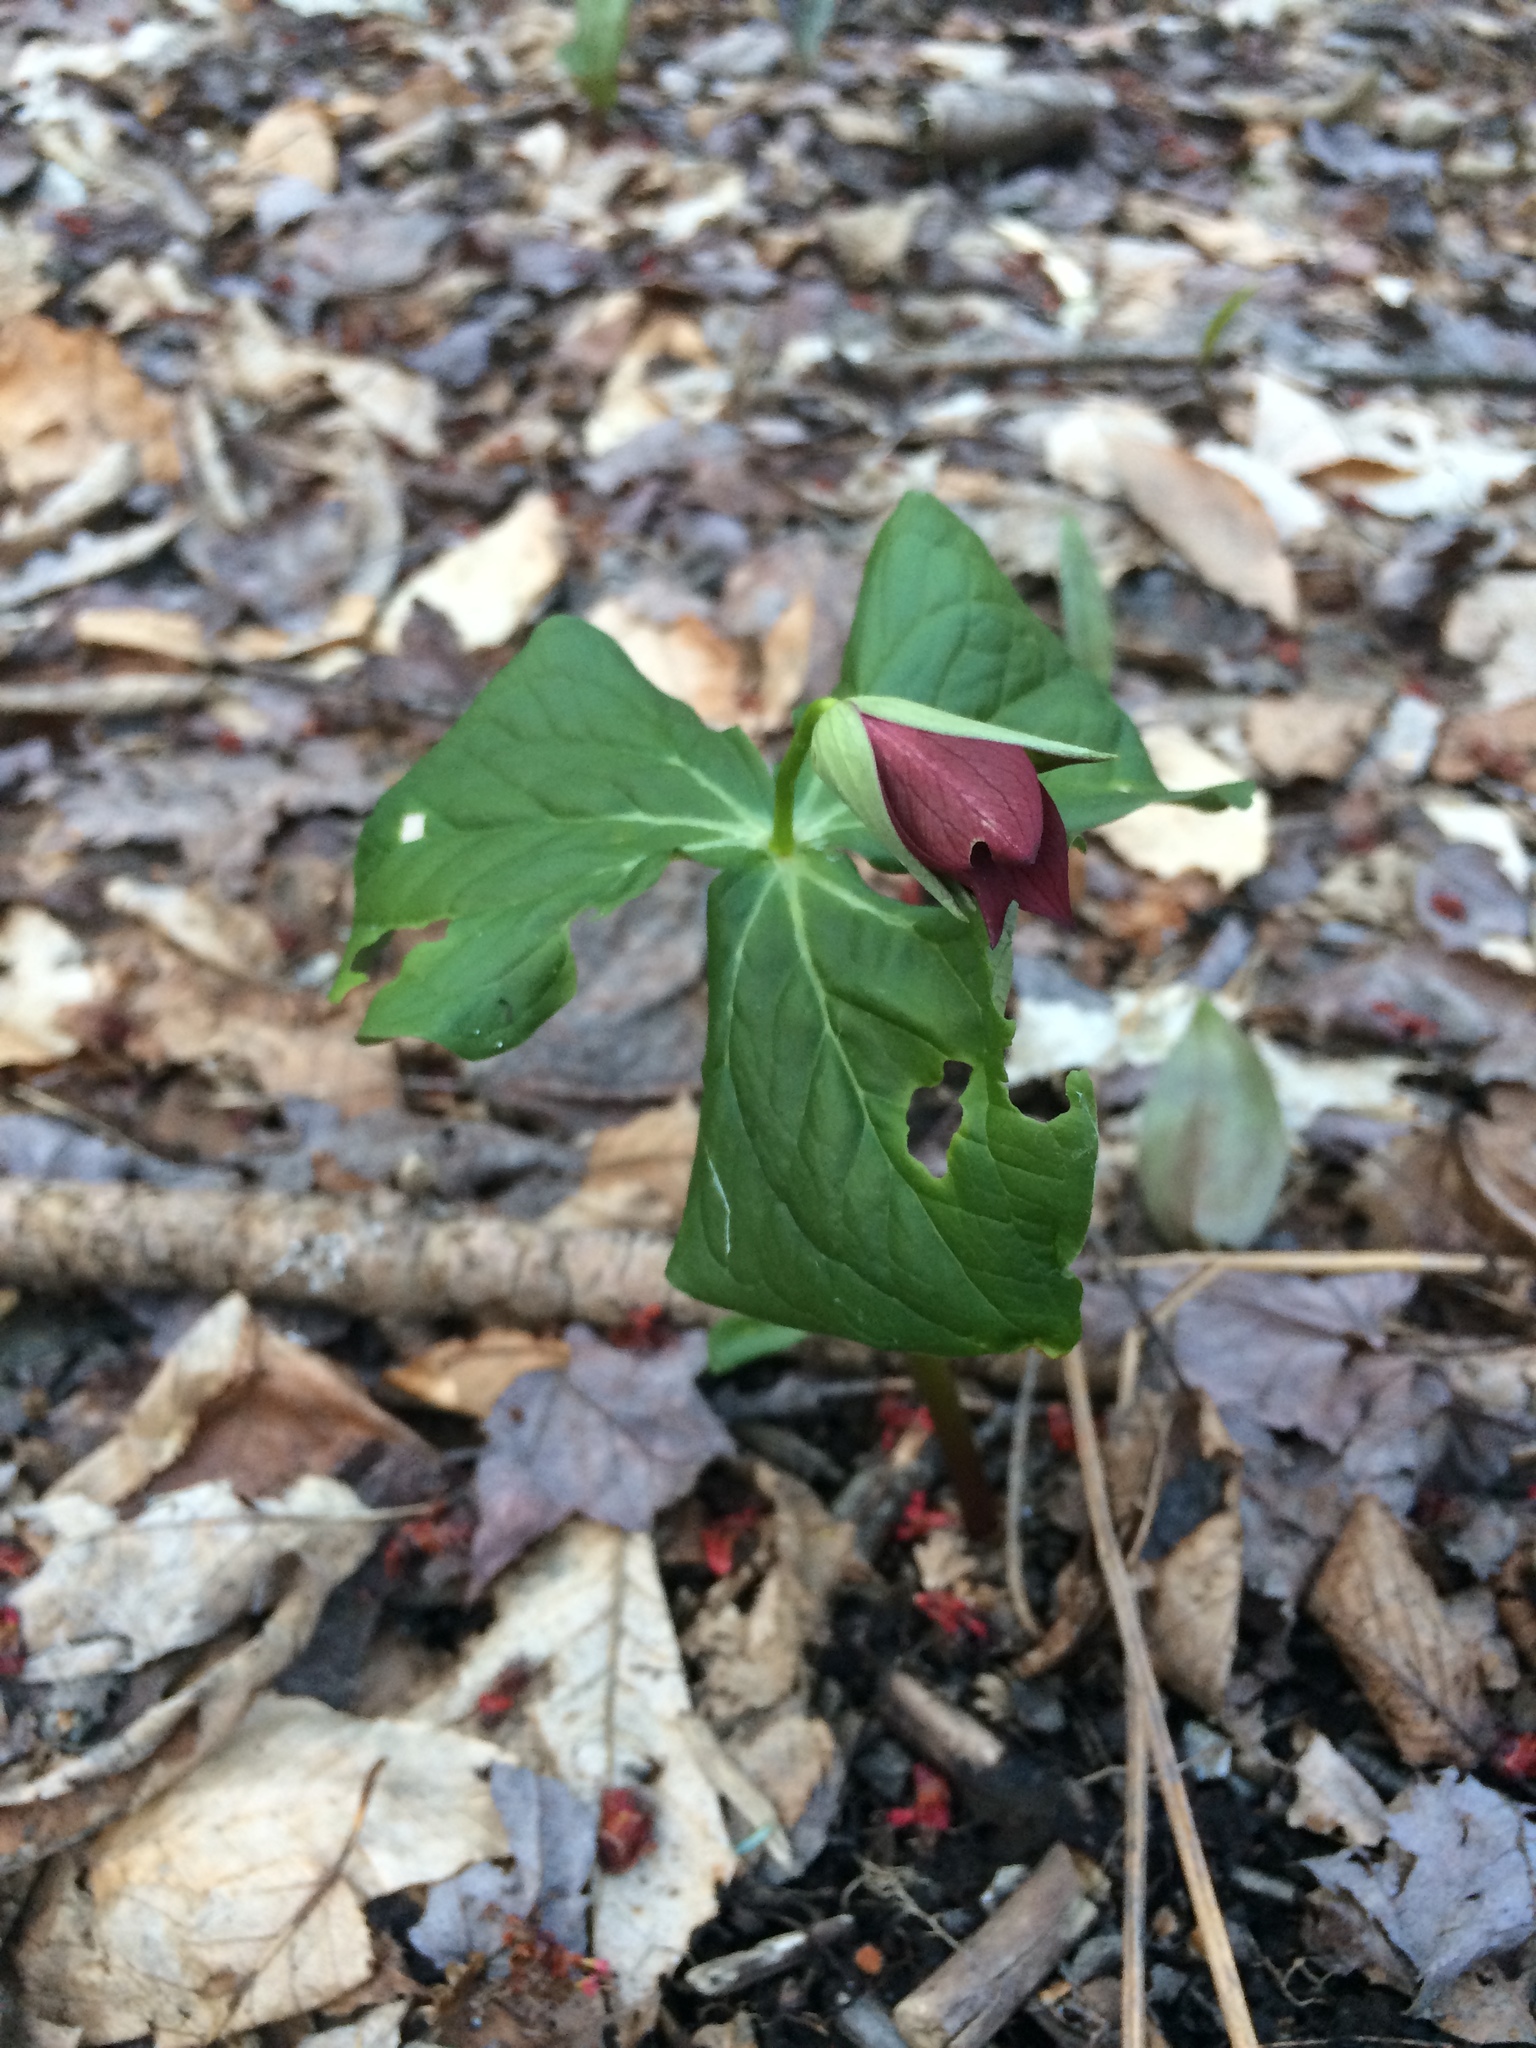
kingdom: Plantae
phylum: Tracheophyta
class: Liliopsida
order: Liliales
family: Melanthiaceae
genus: Trillium
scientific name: Trillium erectum
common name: Purple trillium
